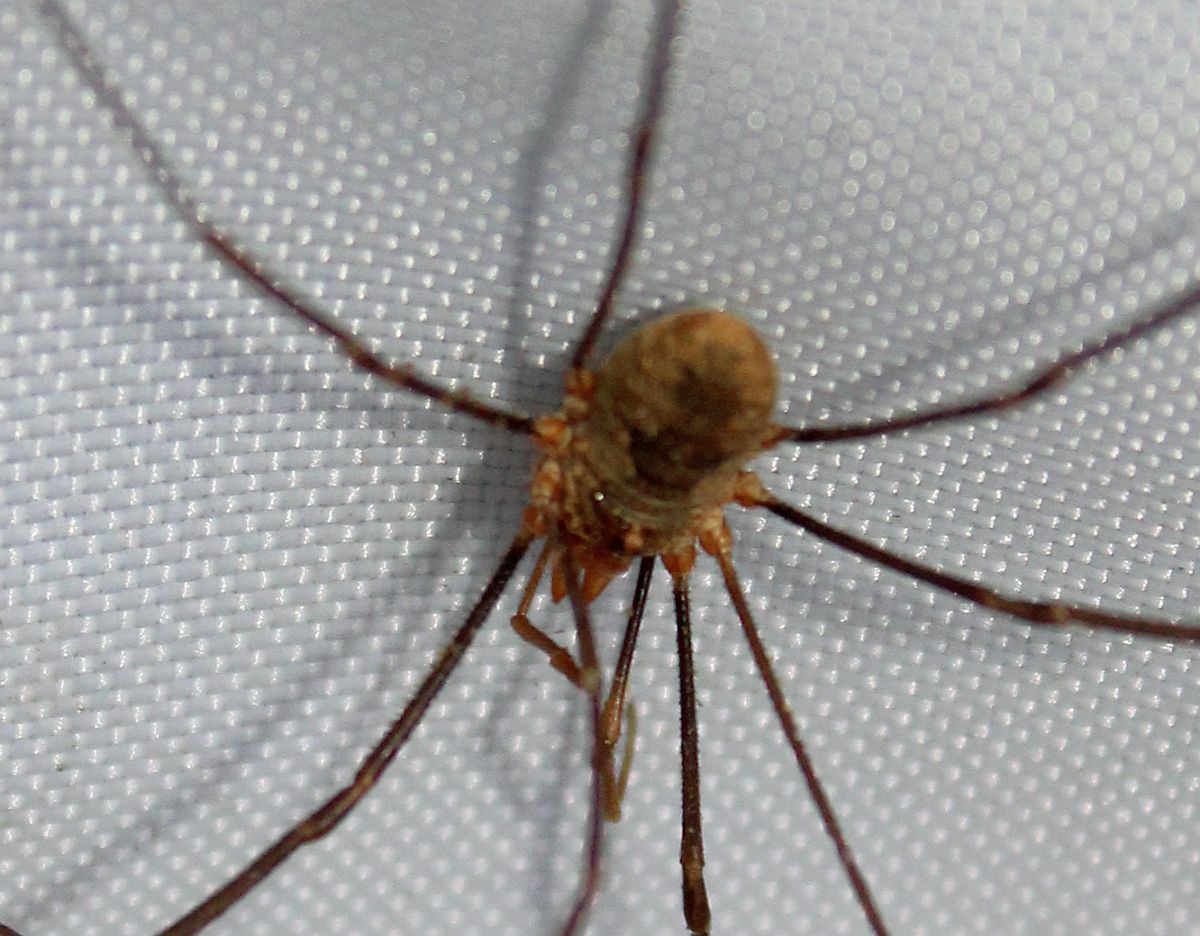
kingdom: Animalia
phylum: Arthropoda
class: Arachnida
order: Opiliones
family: Phalangiidae
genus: Phalangium
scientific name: Phalangium opilio
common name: Daddy longleg
